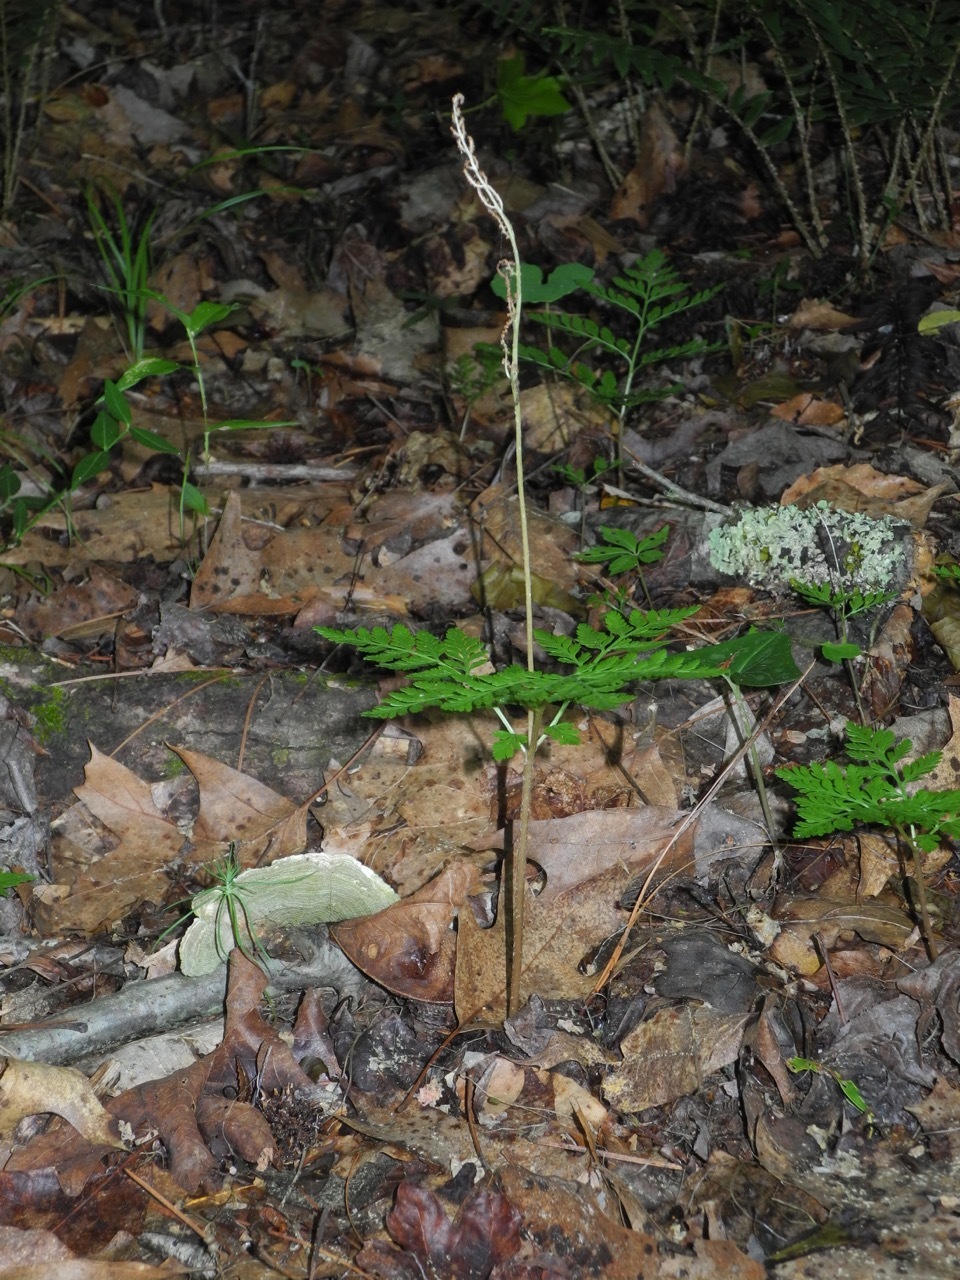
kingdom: Plantae
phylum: Tracheophyta
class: Polypodiopsida
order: Ophioglossales
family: Ophioglossaceae
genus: Botrypus
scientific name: Botrypus virginianus
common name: Common grapefern
